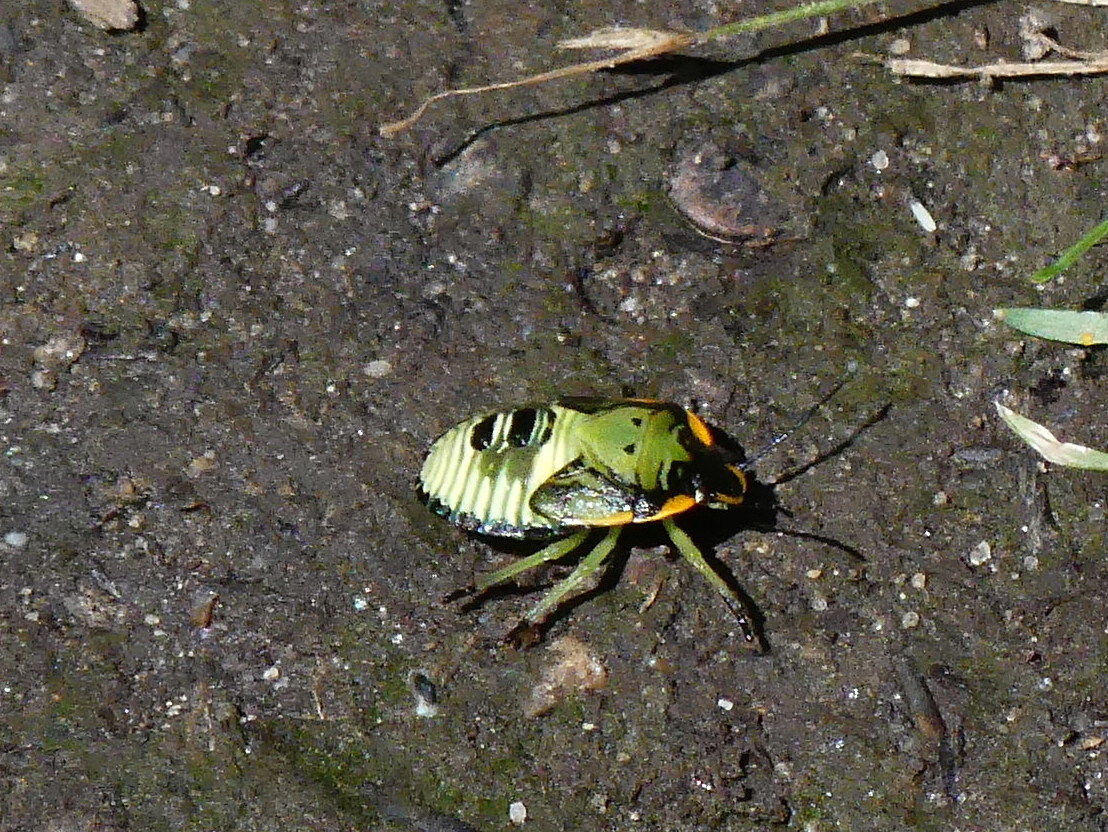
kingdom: Animalia
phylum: Arthropoda
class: Insecta
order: Hemiptera
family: Pentatomidae
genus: Chinavia
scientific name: Chinavia hilaris
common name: Green stink bug
